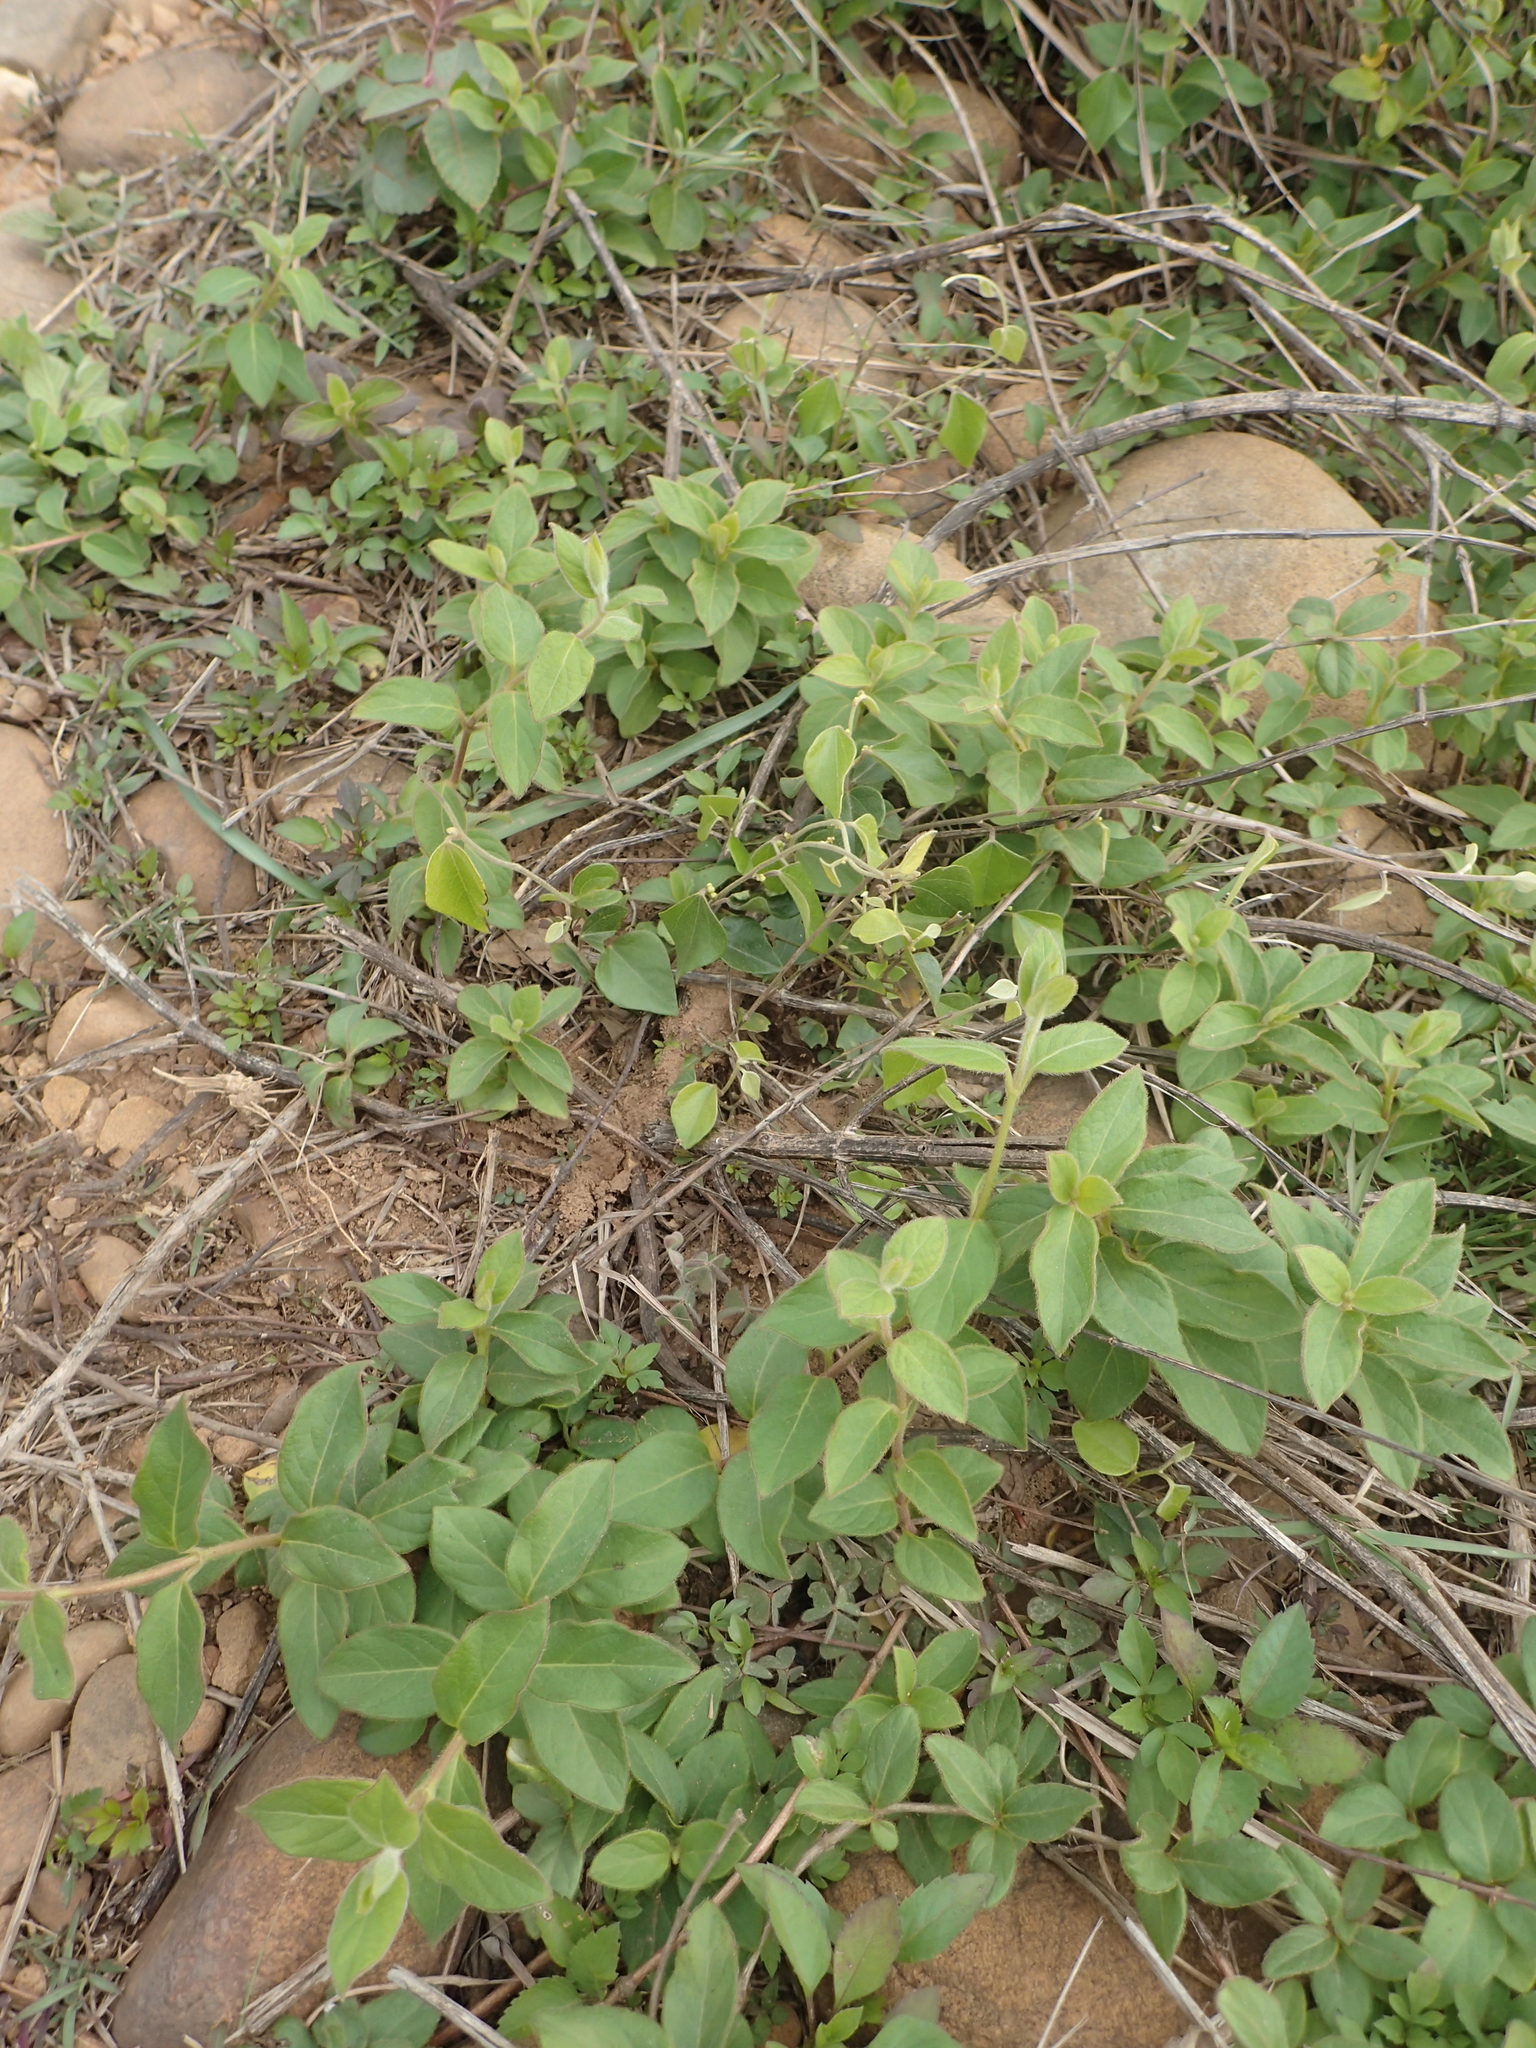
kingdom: Plantae
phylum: Tracheophyta
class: Magnoliopsida
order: Dipsacales
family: Caprifoliaceae
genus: Lonicera
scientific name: Lonicera japonica
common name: Japanese honeysuckle
